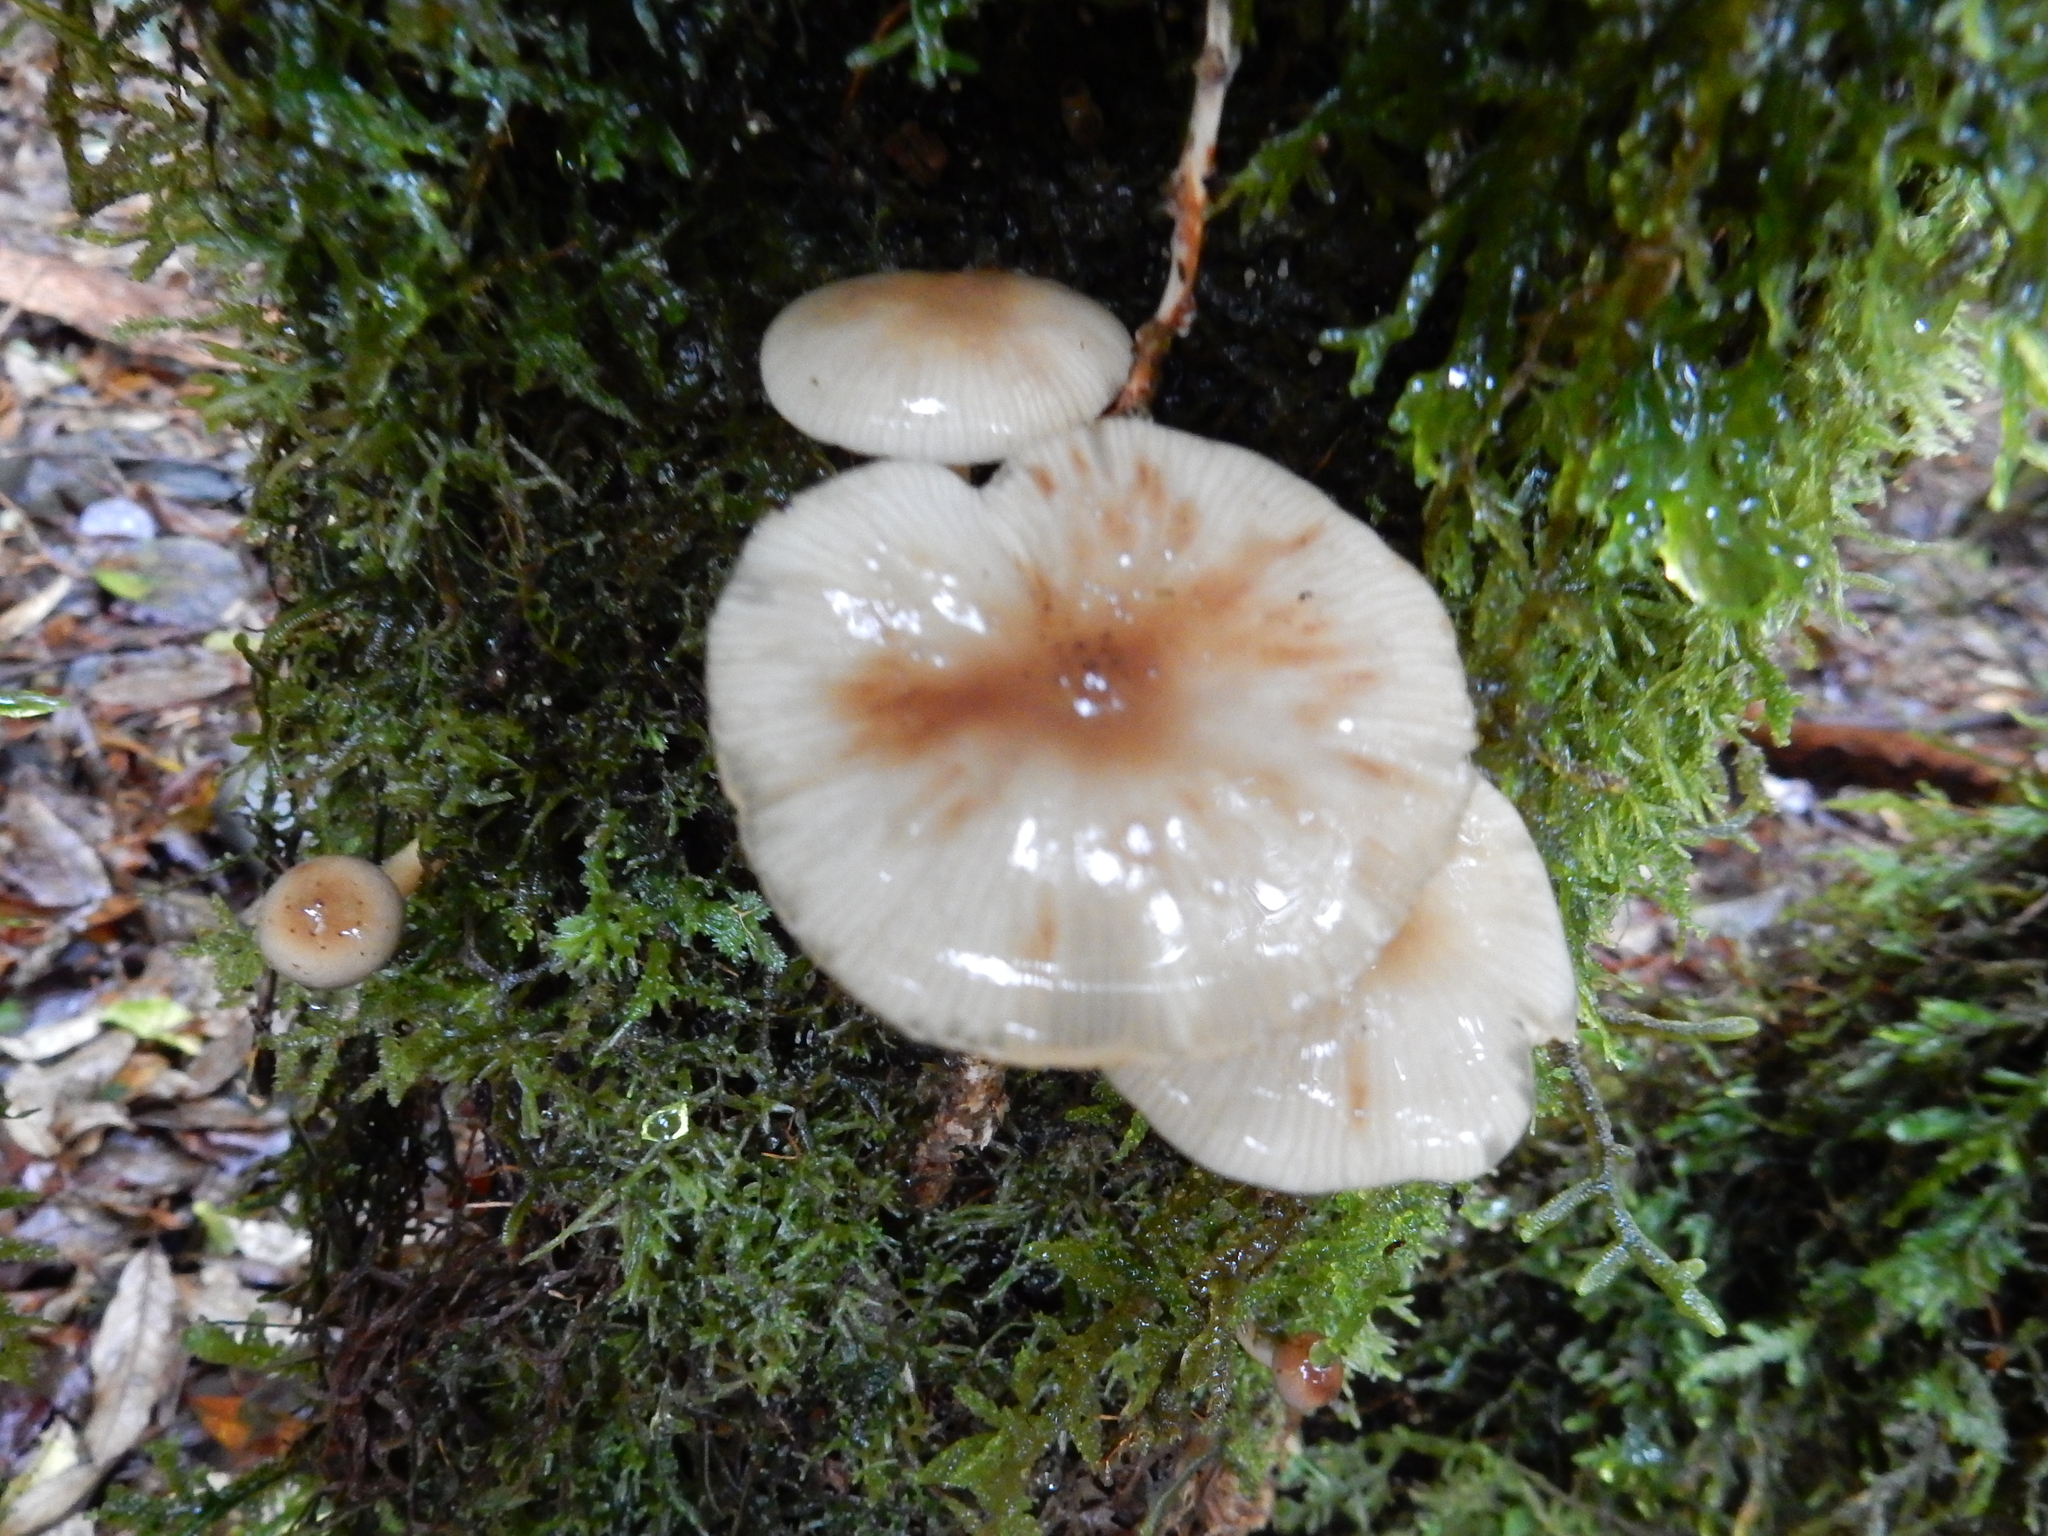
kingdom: Fungi
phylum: Basidiomycota
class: Agaricomycetes
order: Agaricales
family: Physalacriaceae
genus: Armillaria
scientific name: Armillaria novae-zelandiae
